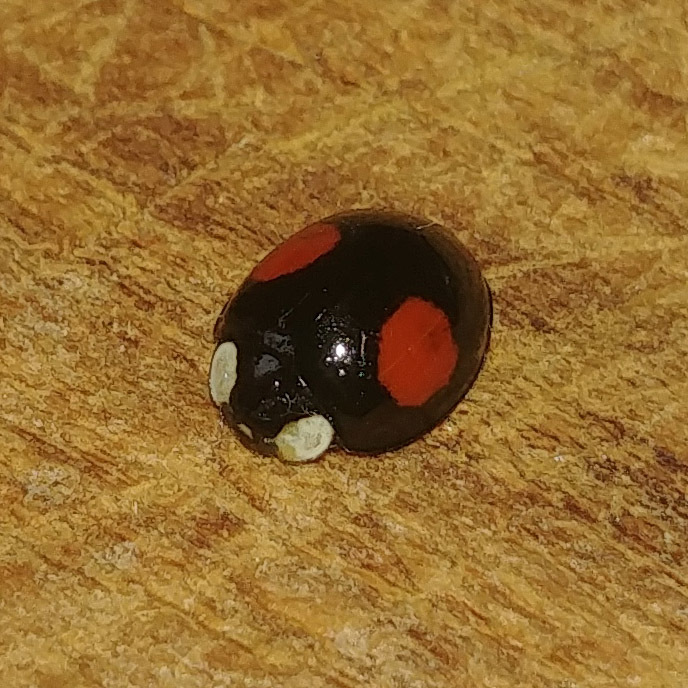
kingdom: Animalia
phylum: Arthropoda
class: Insecta
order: Coleoptera
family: Coccinellidae
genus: Harmonia
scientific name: Harmonia axyridis
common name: Harlequin ladybird
